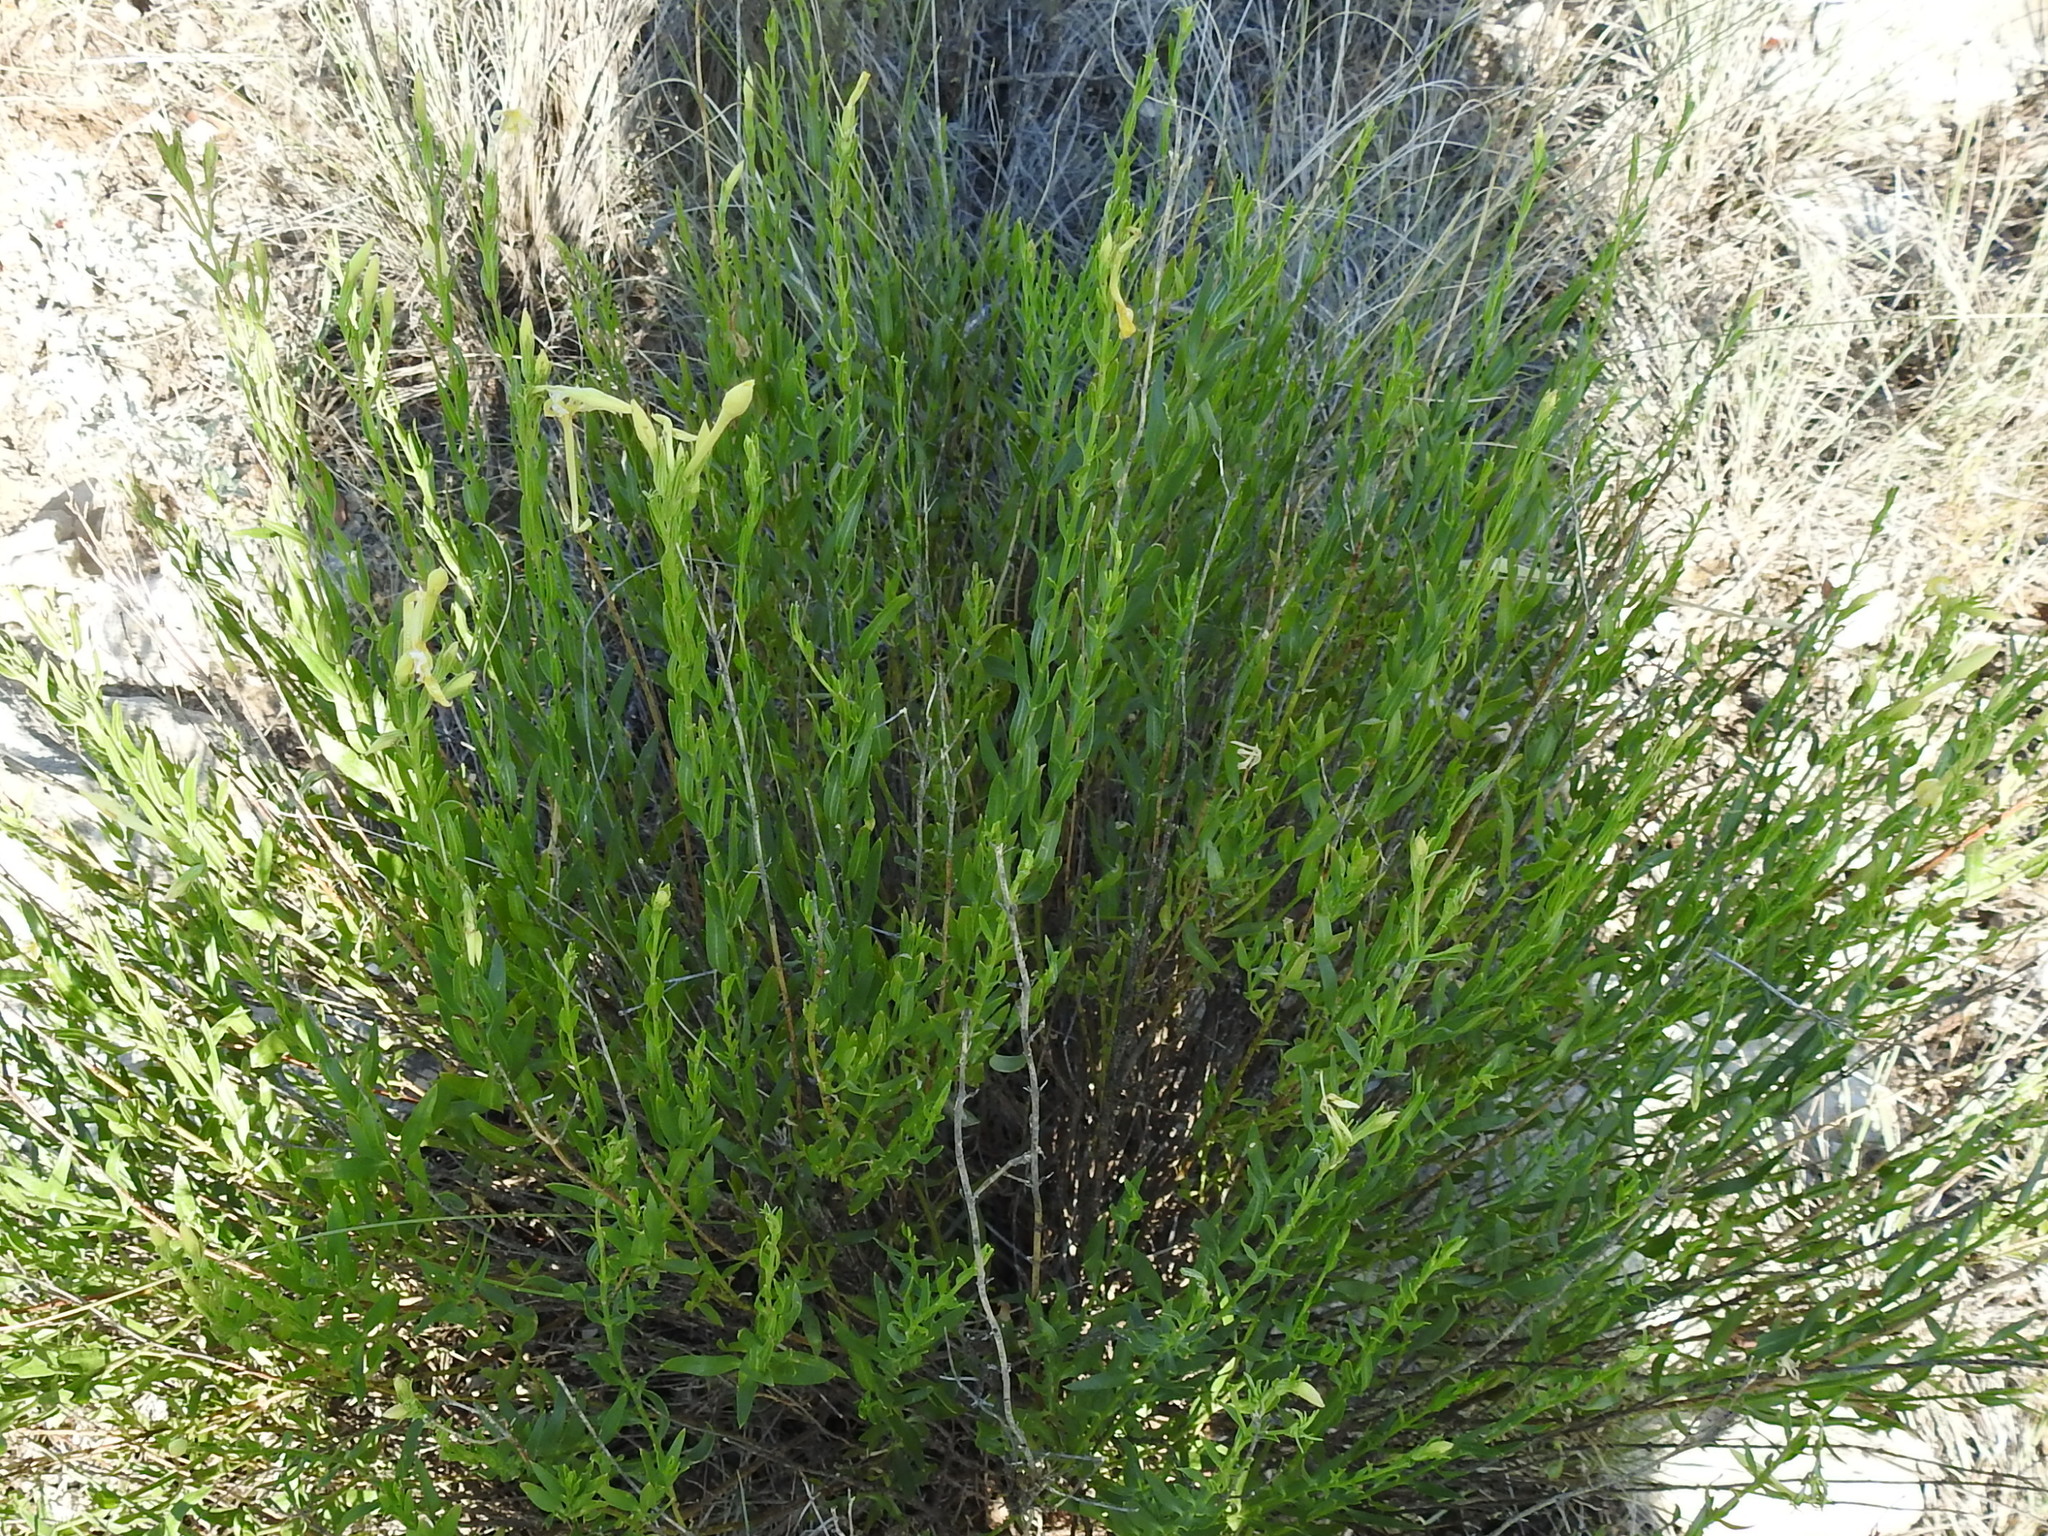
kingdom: Plantae
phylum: Tracheophyta
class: Magnoliopsida
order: Lamiales
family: Oleaceae
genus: Menodora
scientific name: Menodora longiflora
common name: Showy menodora
